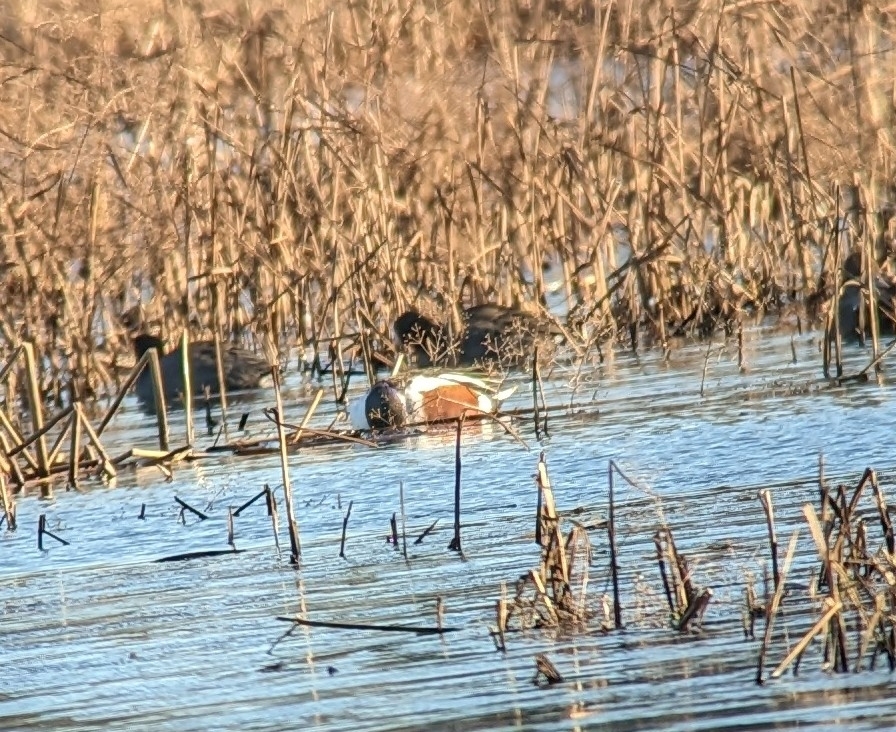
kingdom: Animalia
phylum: Chordata
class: Aves
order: Anseriformes
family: Anatidae
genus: Spatula
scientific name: Spatula clypeata
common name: Northern shoveler
